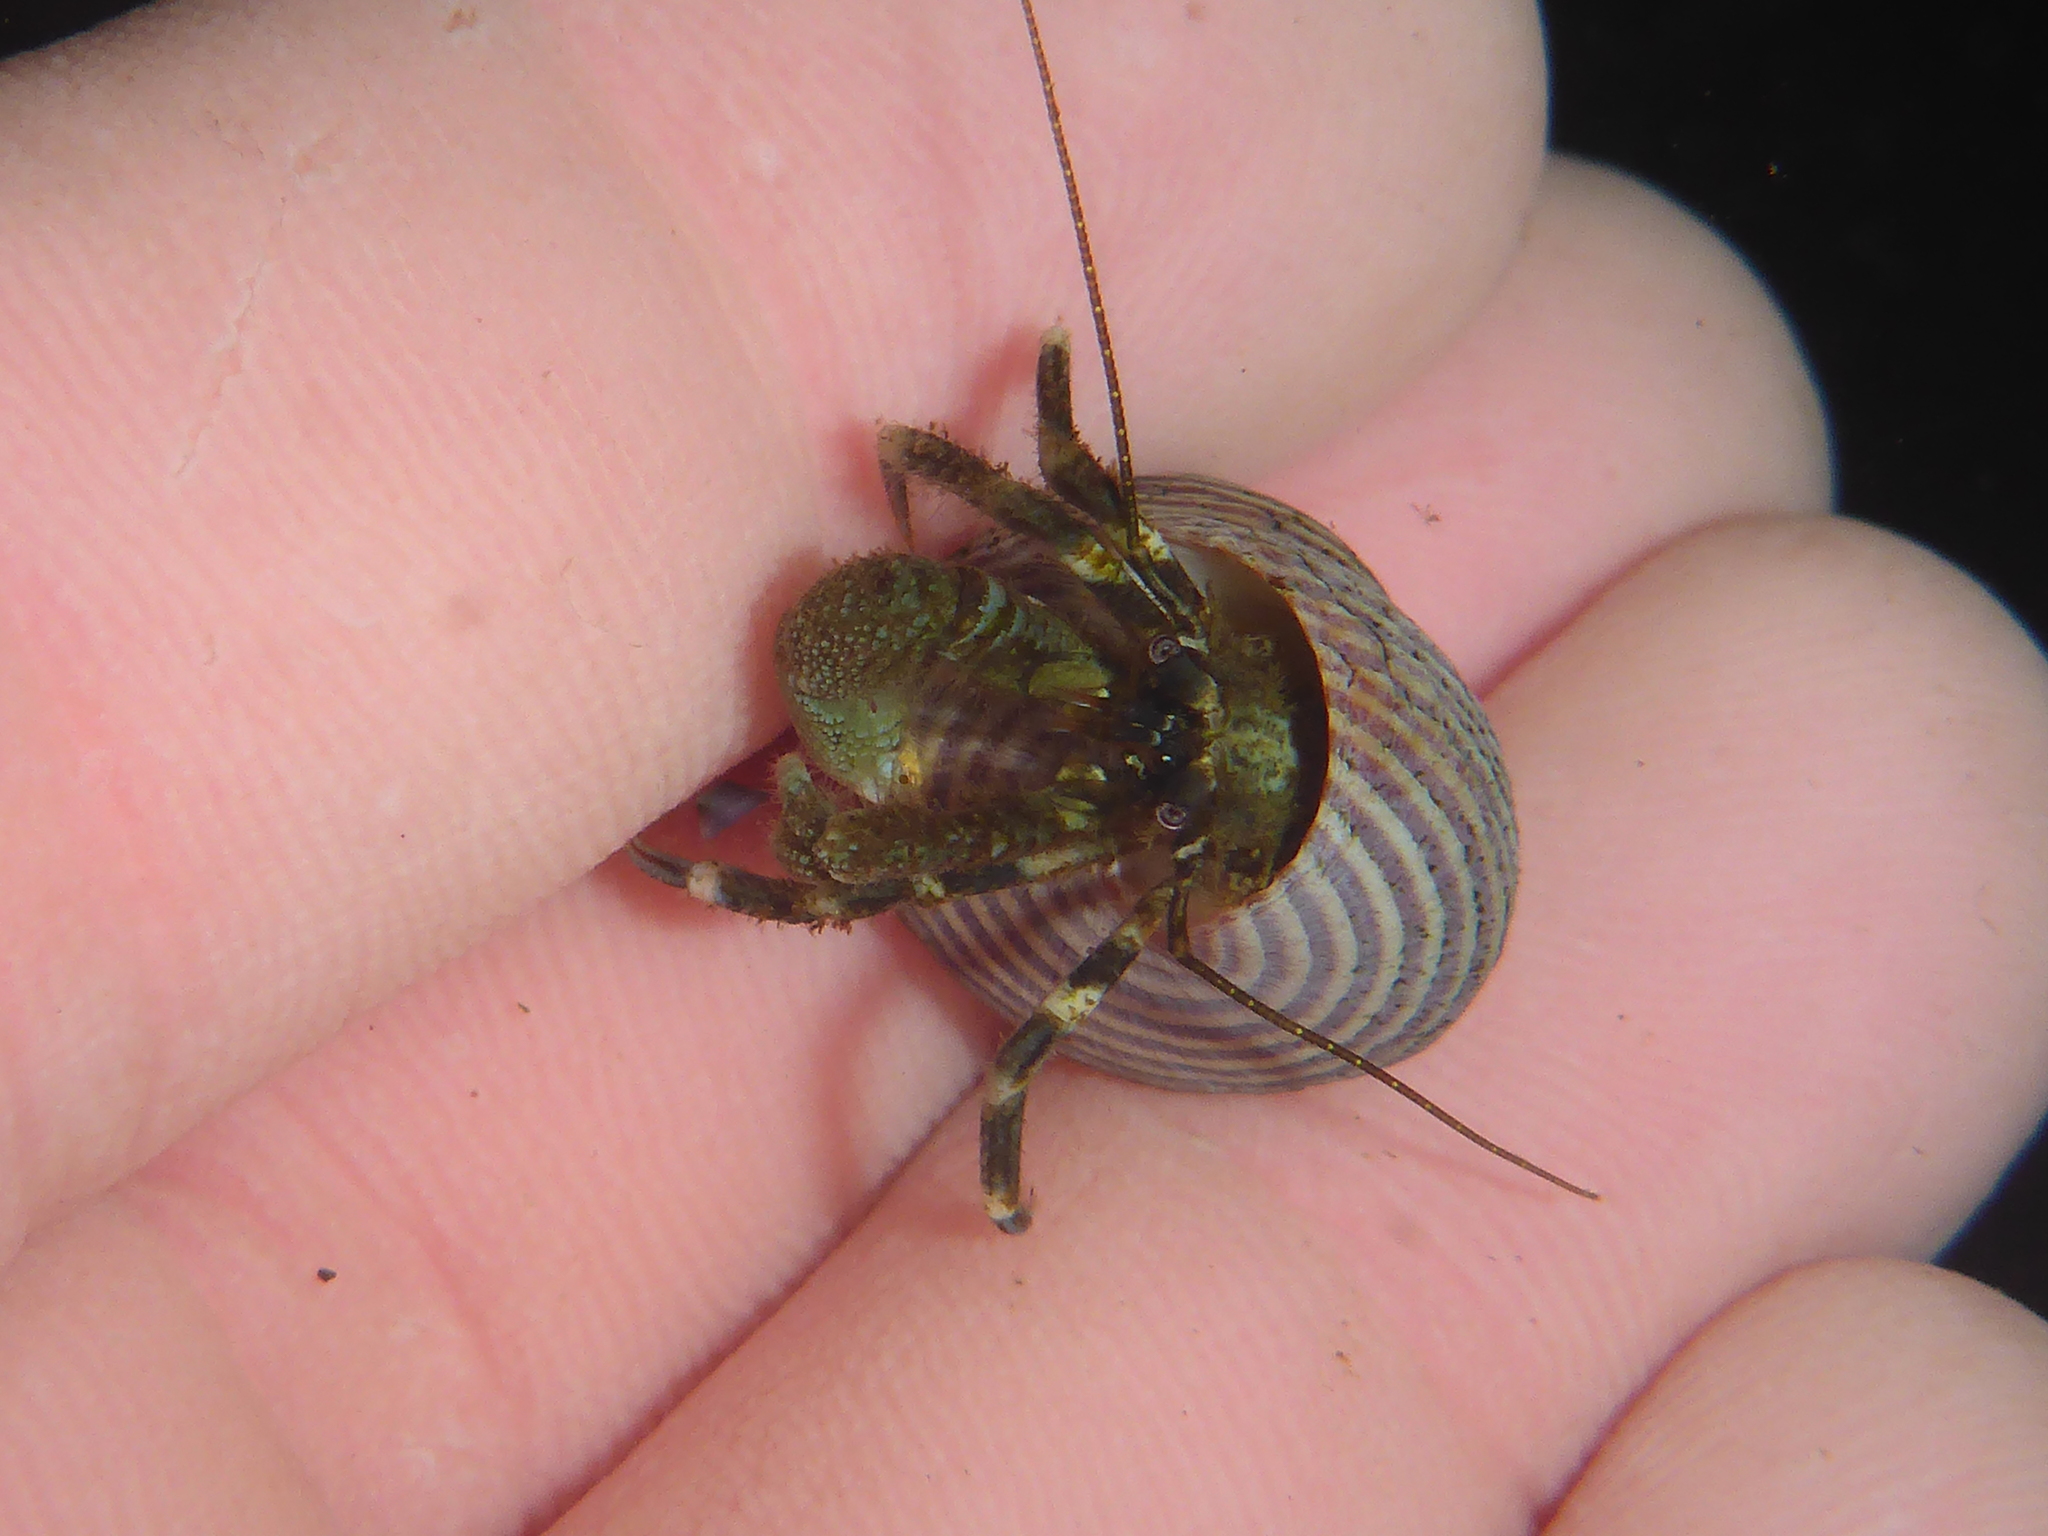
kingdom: Animalia
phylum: Arthropoda
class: Malacostraca
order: Decapoda
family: Paguridae
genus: Pagurus
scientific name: Pagurus venturensis
